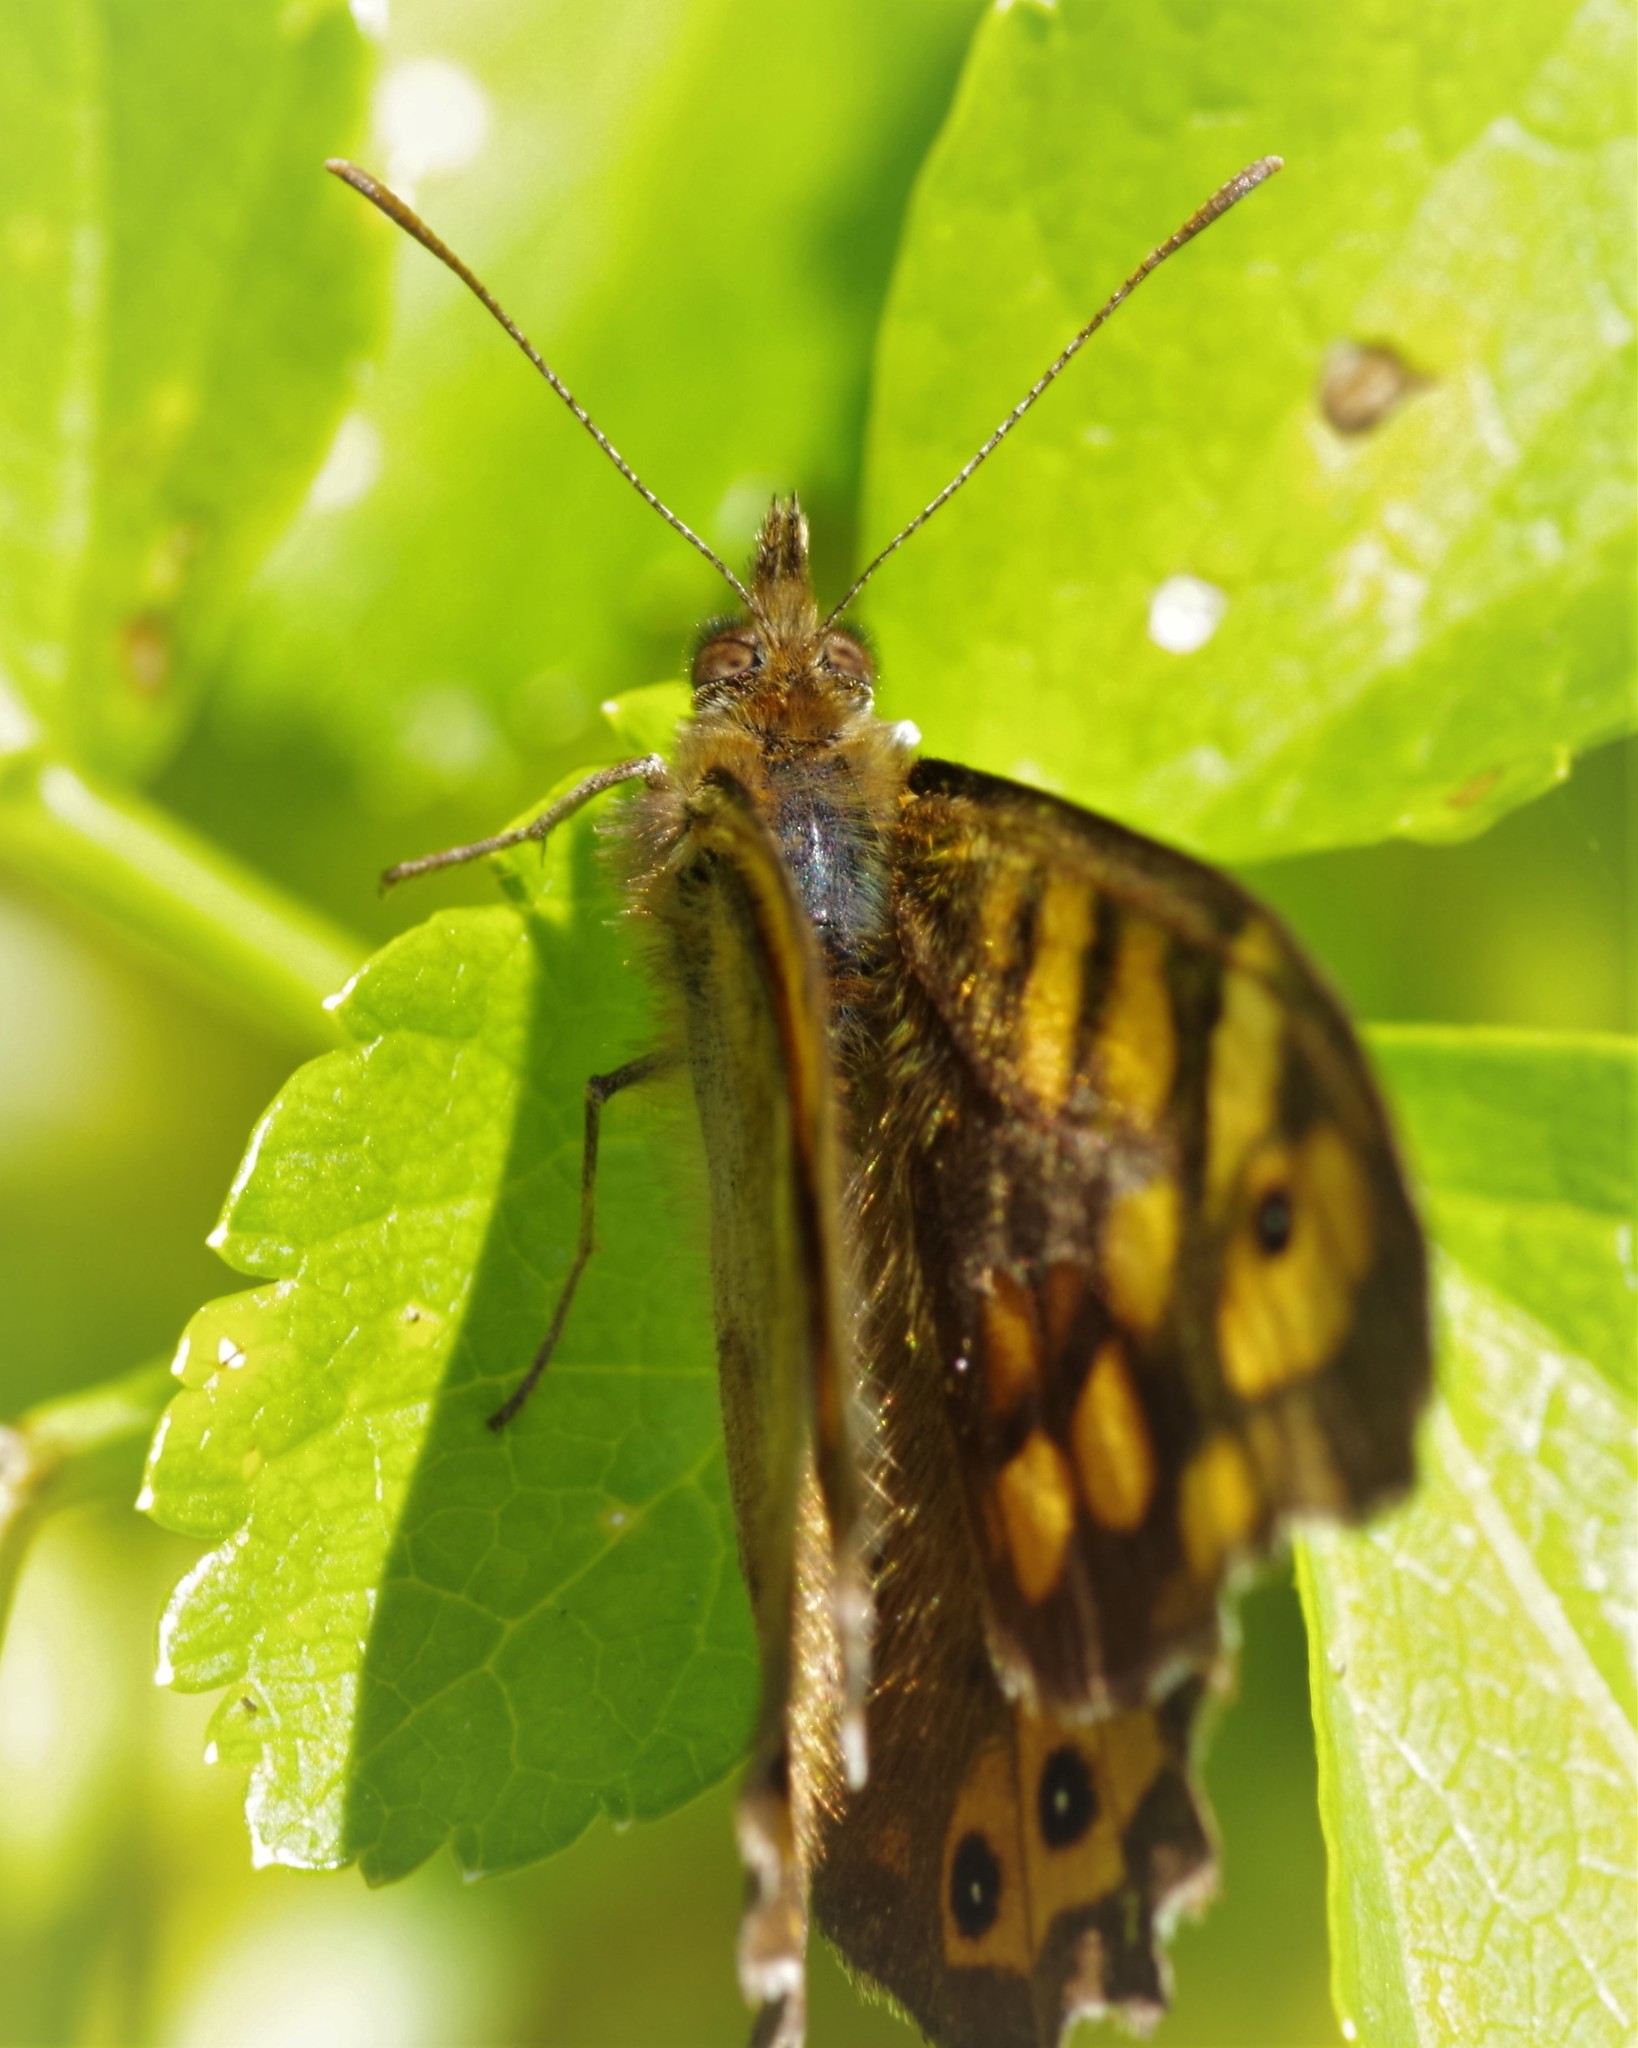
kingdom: Animalia
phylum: Arthropoda
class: Insecta
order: Lepidoptera
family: Nymphalidae
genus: Pararge
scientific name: Pararge aegeria
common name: Speckled wood
